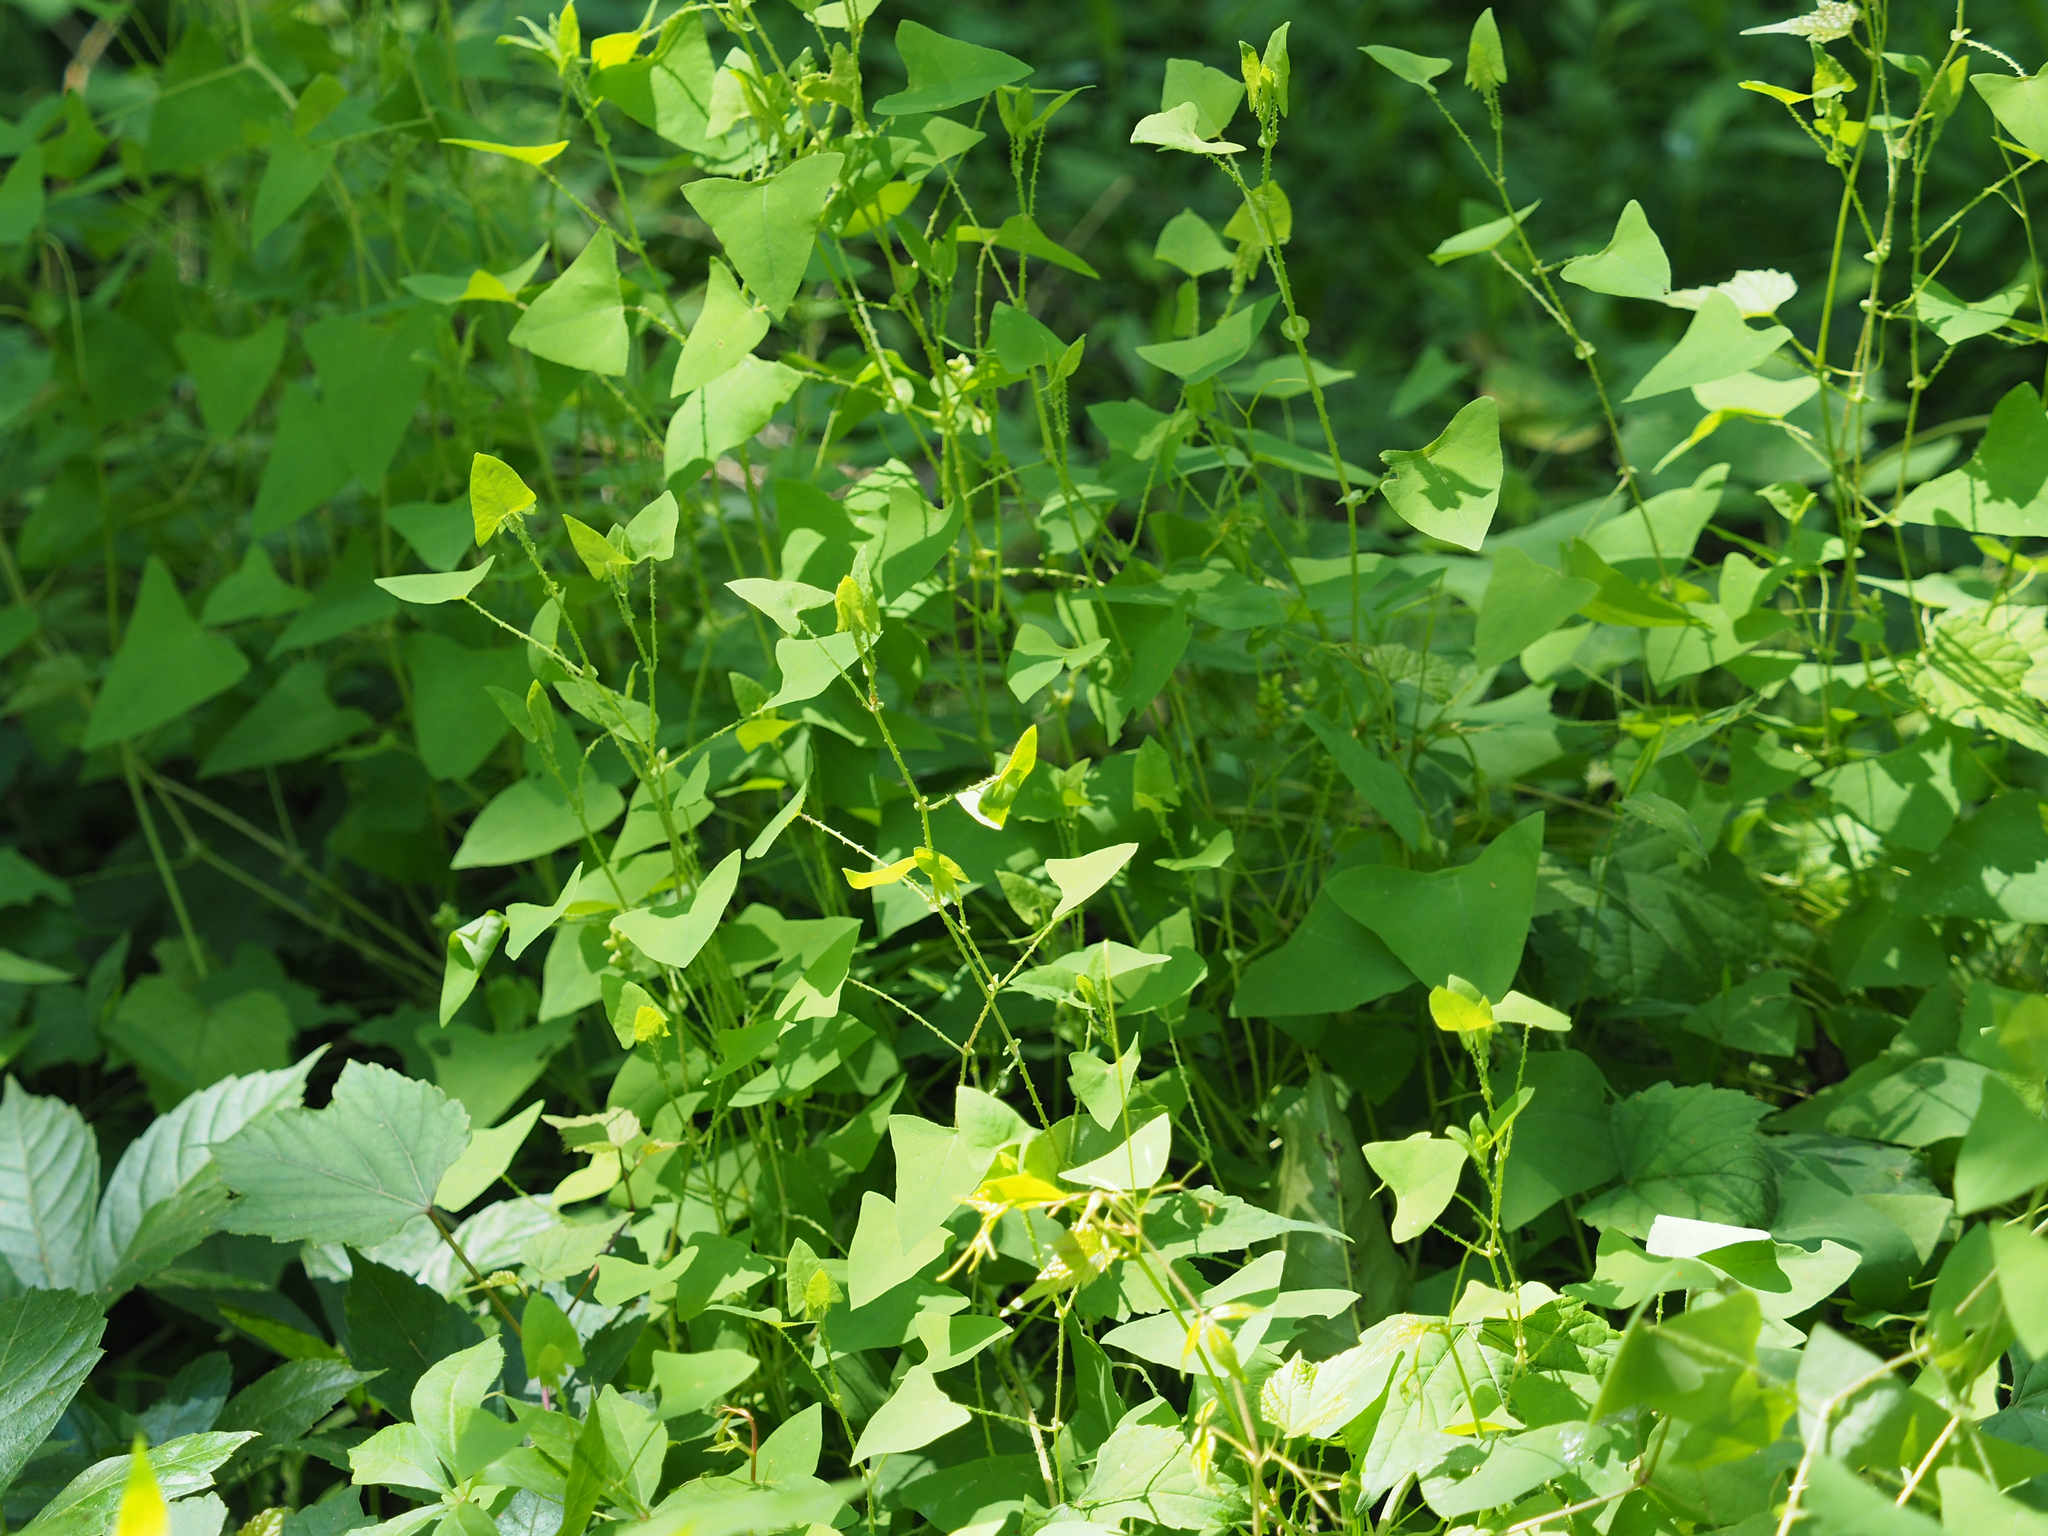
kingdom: Plantae
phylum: Tracheophyta
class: Magnoliopsida
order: Caryophyllales
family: Polygonaceae
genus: Persicaria
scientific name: Persicaria perfoliata
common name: Asiatic tearthumb
